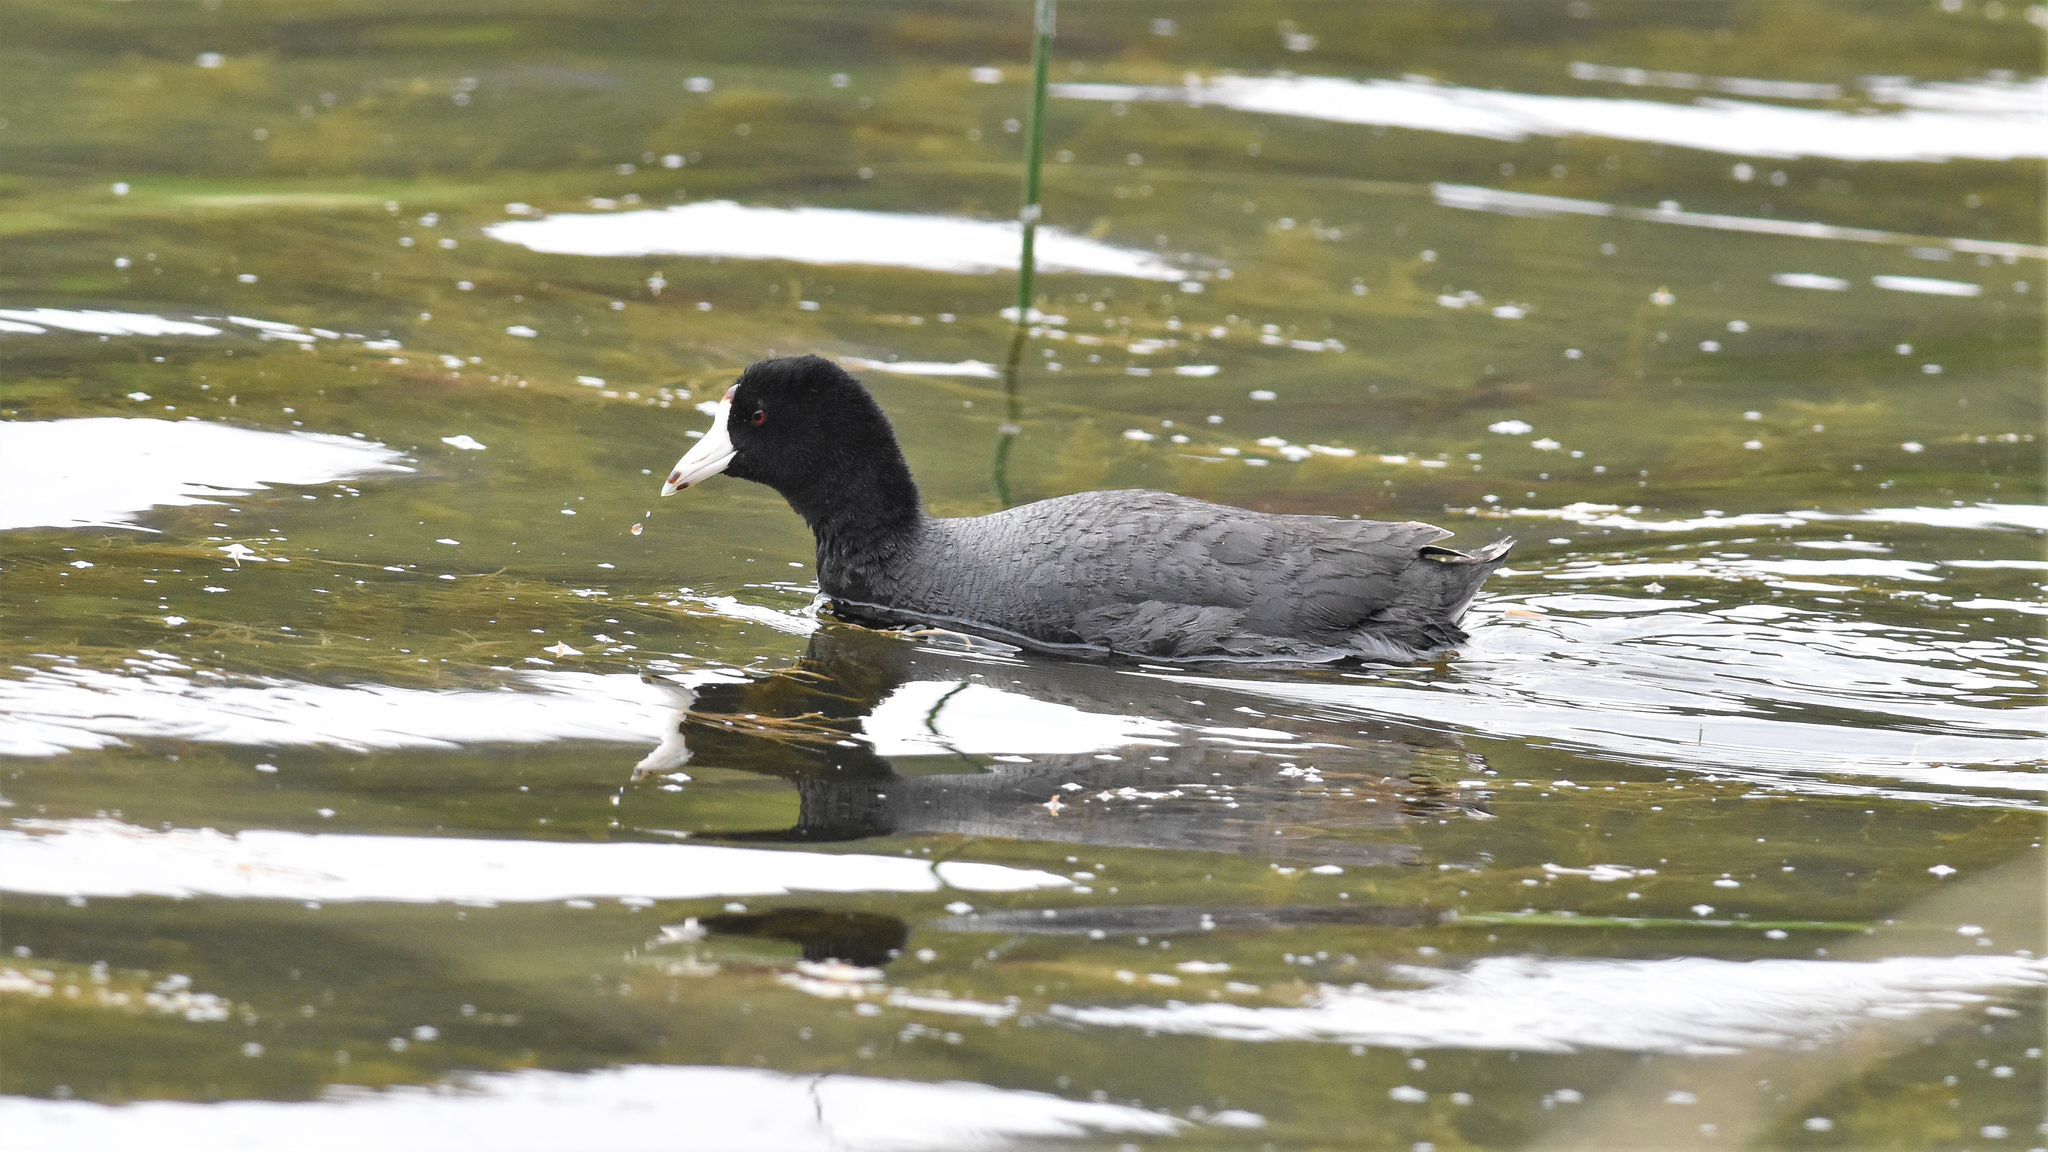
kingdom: Animalia
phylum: Chordata
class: Aves
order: Gruiformes
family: Rallidae
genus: Fulica
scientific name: Fulica americana
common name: American coot
